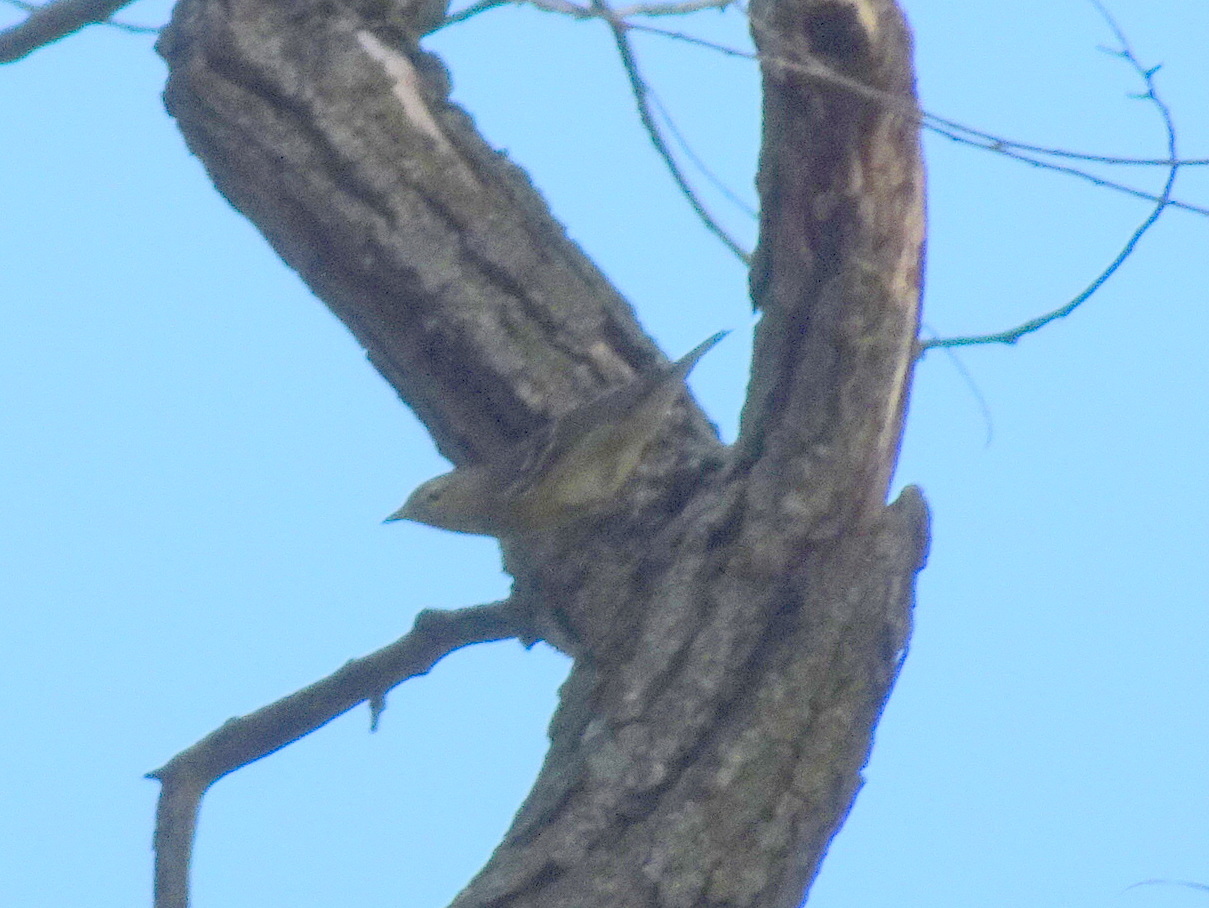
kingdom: Animalia
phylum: Chordata
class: Aves
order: Passeriformes
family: Parulidae
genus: Setophaga
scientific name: Setophaga striata
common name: Blackpoll warbler
